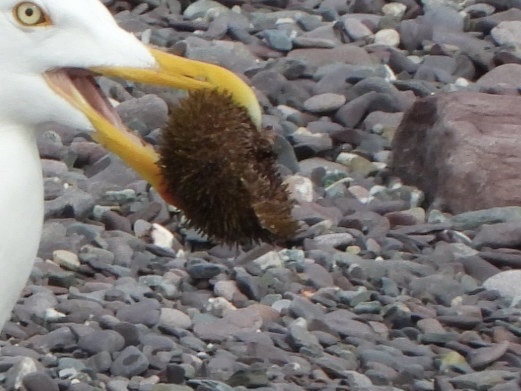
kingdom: Animalia
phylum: Echinodermata
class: Echinoidea
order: Camarodonta
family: Strongylocentrotidae
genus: Strongylocentrotus
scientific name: Strongylocentrotus droebachiensis
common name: Northern sea urchin
